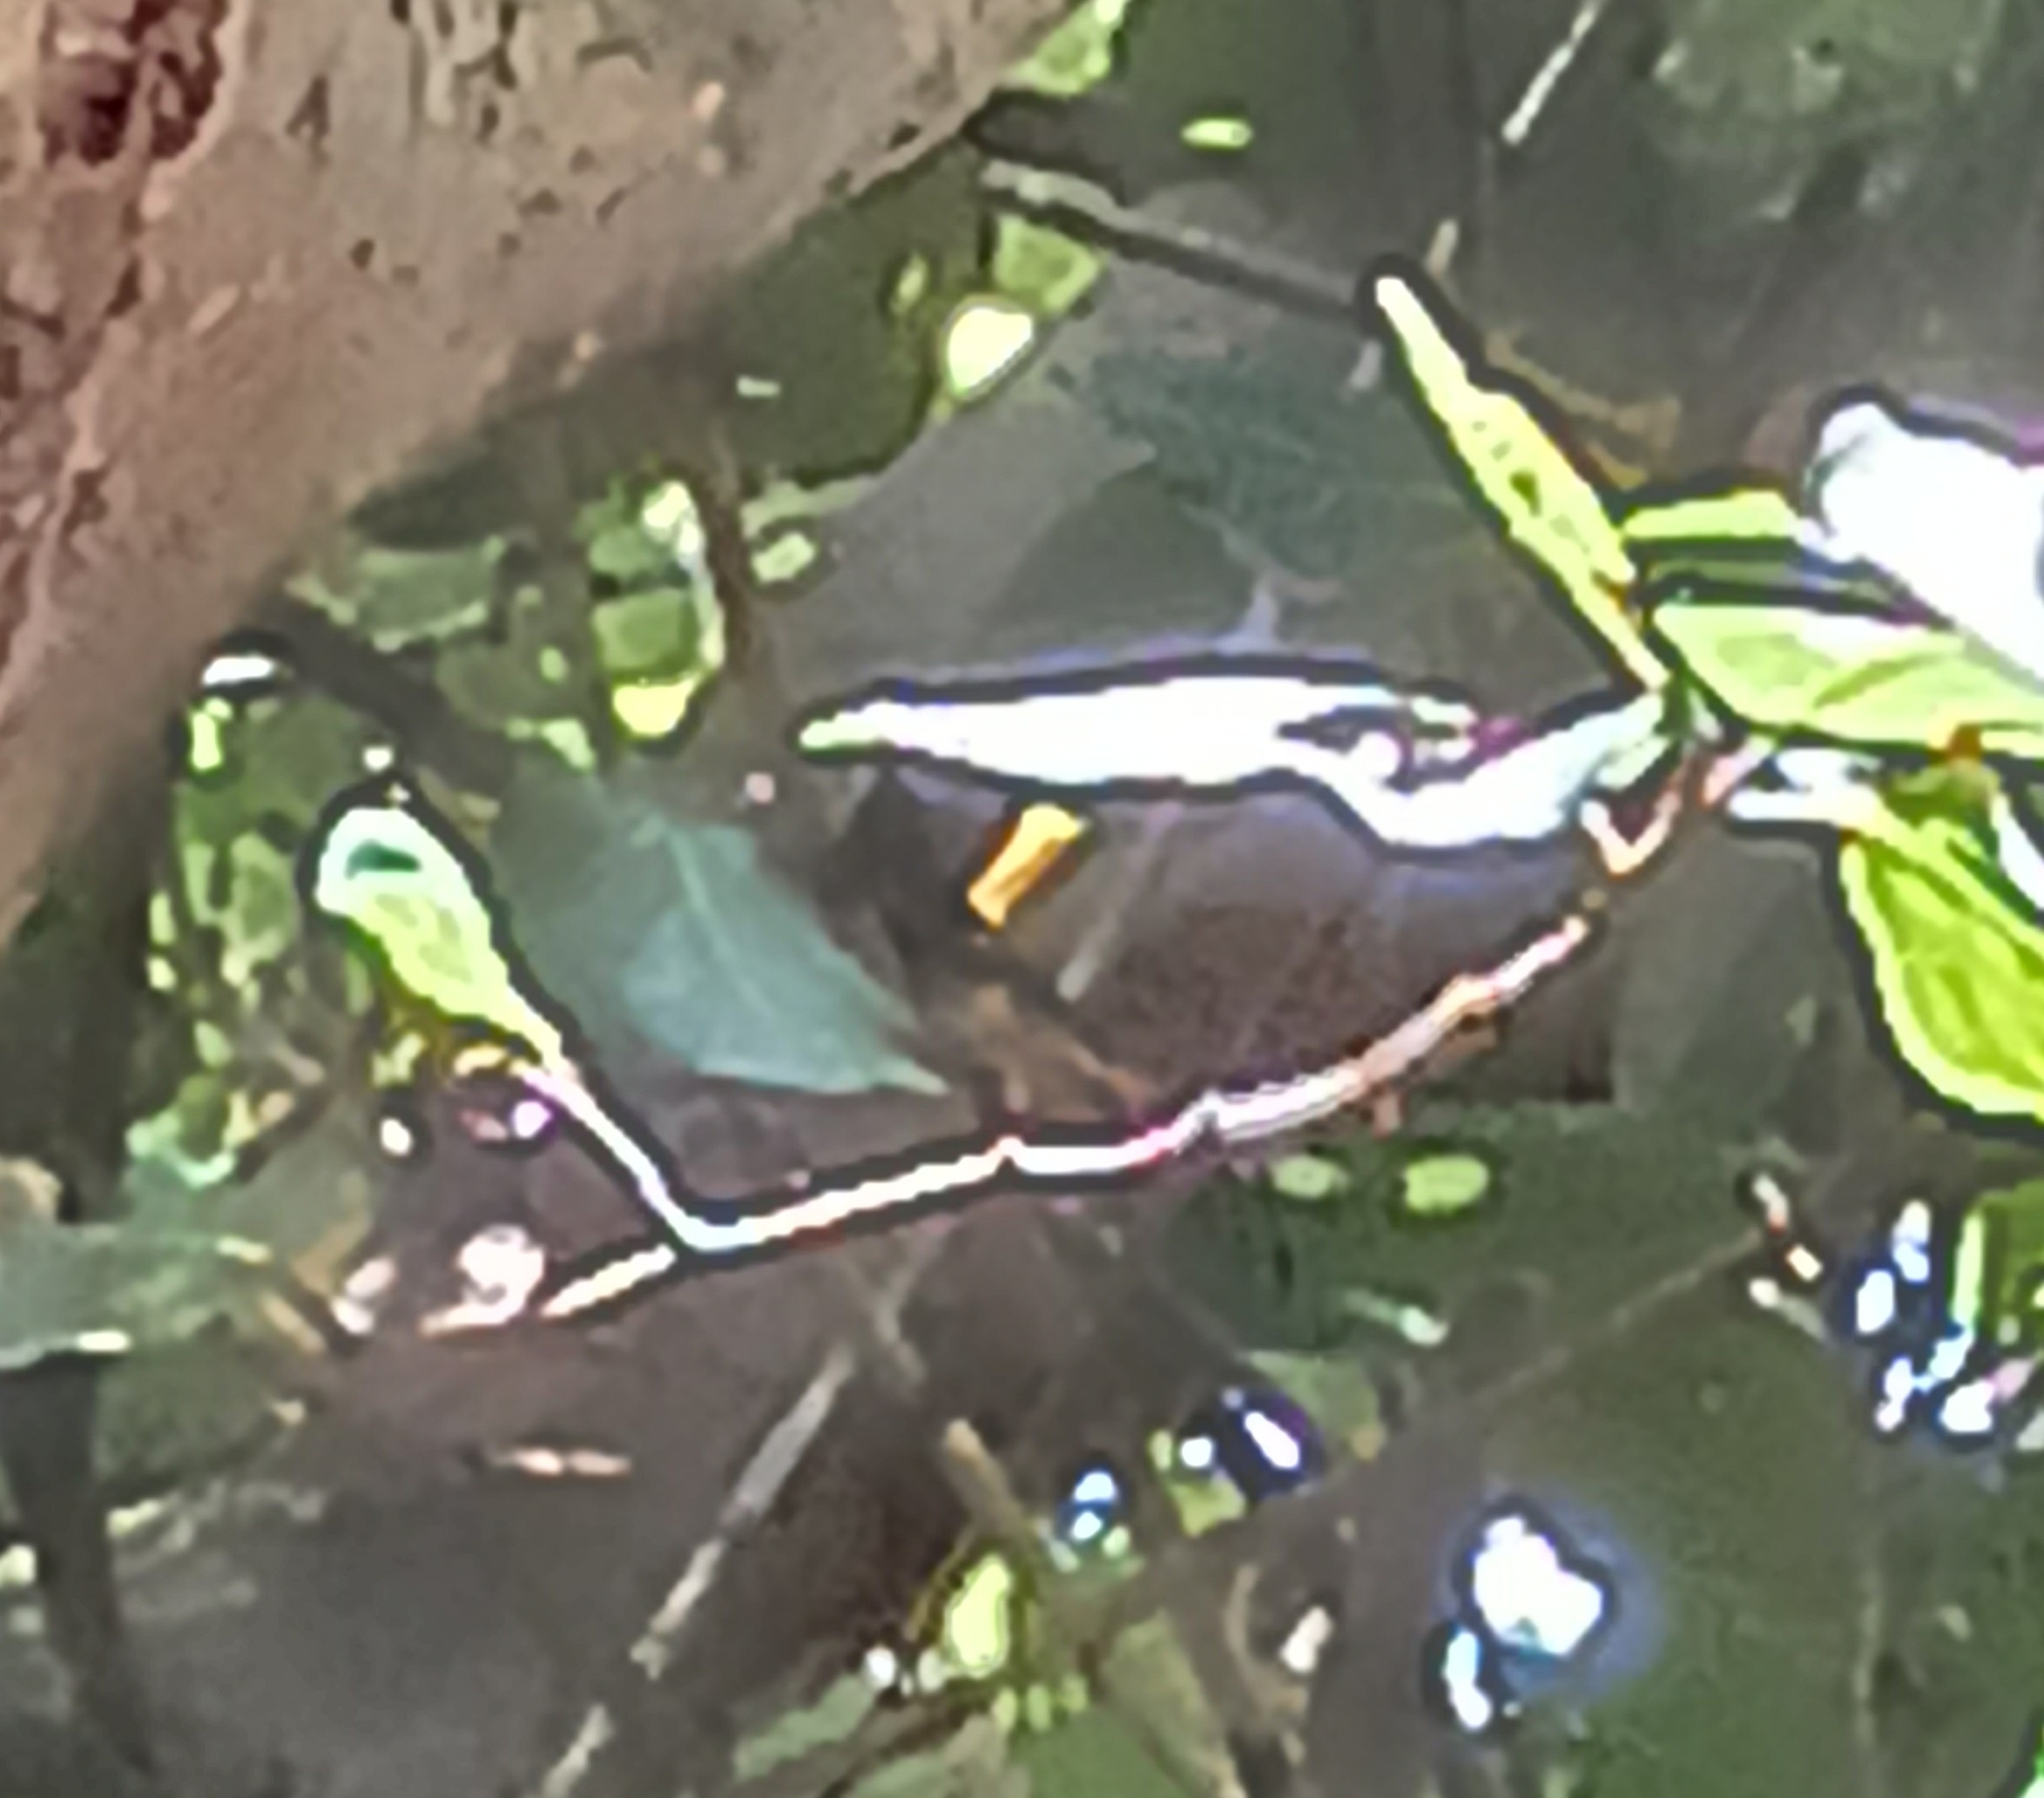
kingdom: Animalia
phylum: Chordata
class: Aves
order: Passeriformes
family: Parulidae
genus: Setophaga
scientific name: Setophaga ruticilla
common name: American redstart
